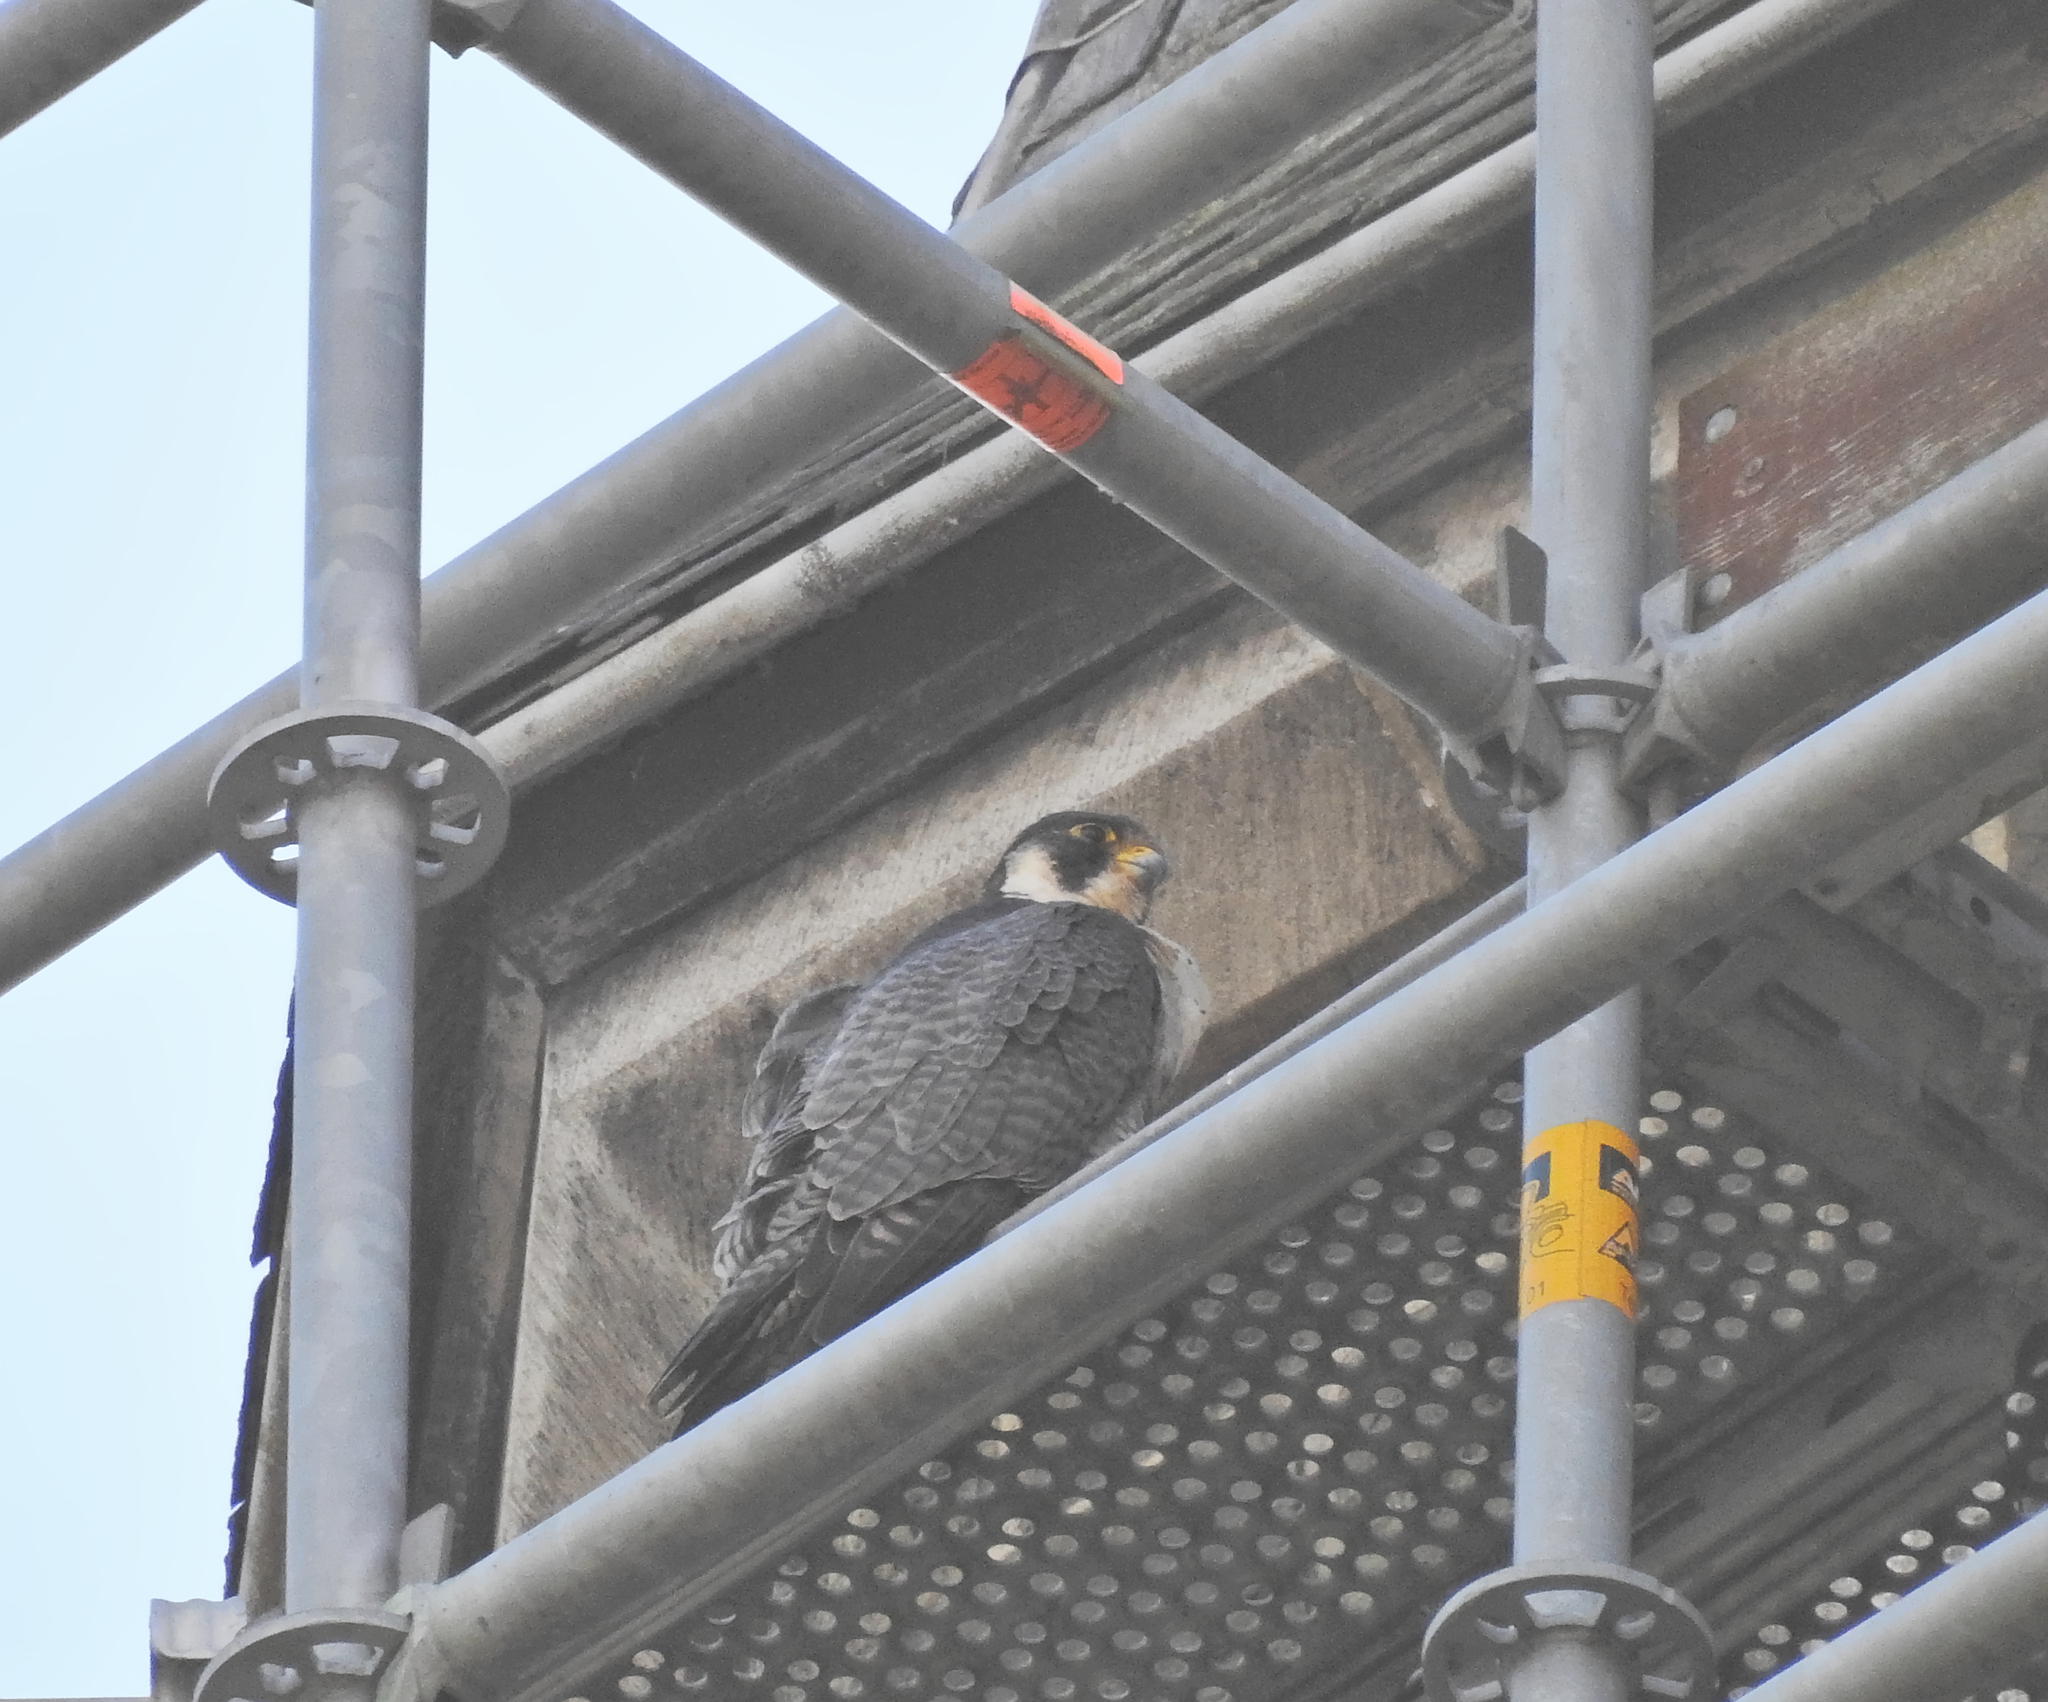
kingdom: Animalia
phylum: Chordata
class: Aves
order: Falconiformes
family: Falconidae
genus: Falco
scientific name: Falco peregrinus
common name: Peregrine falcon
